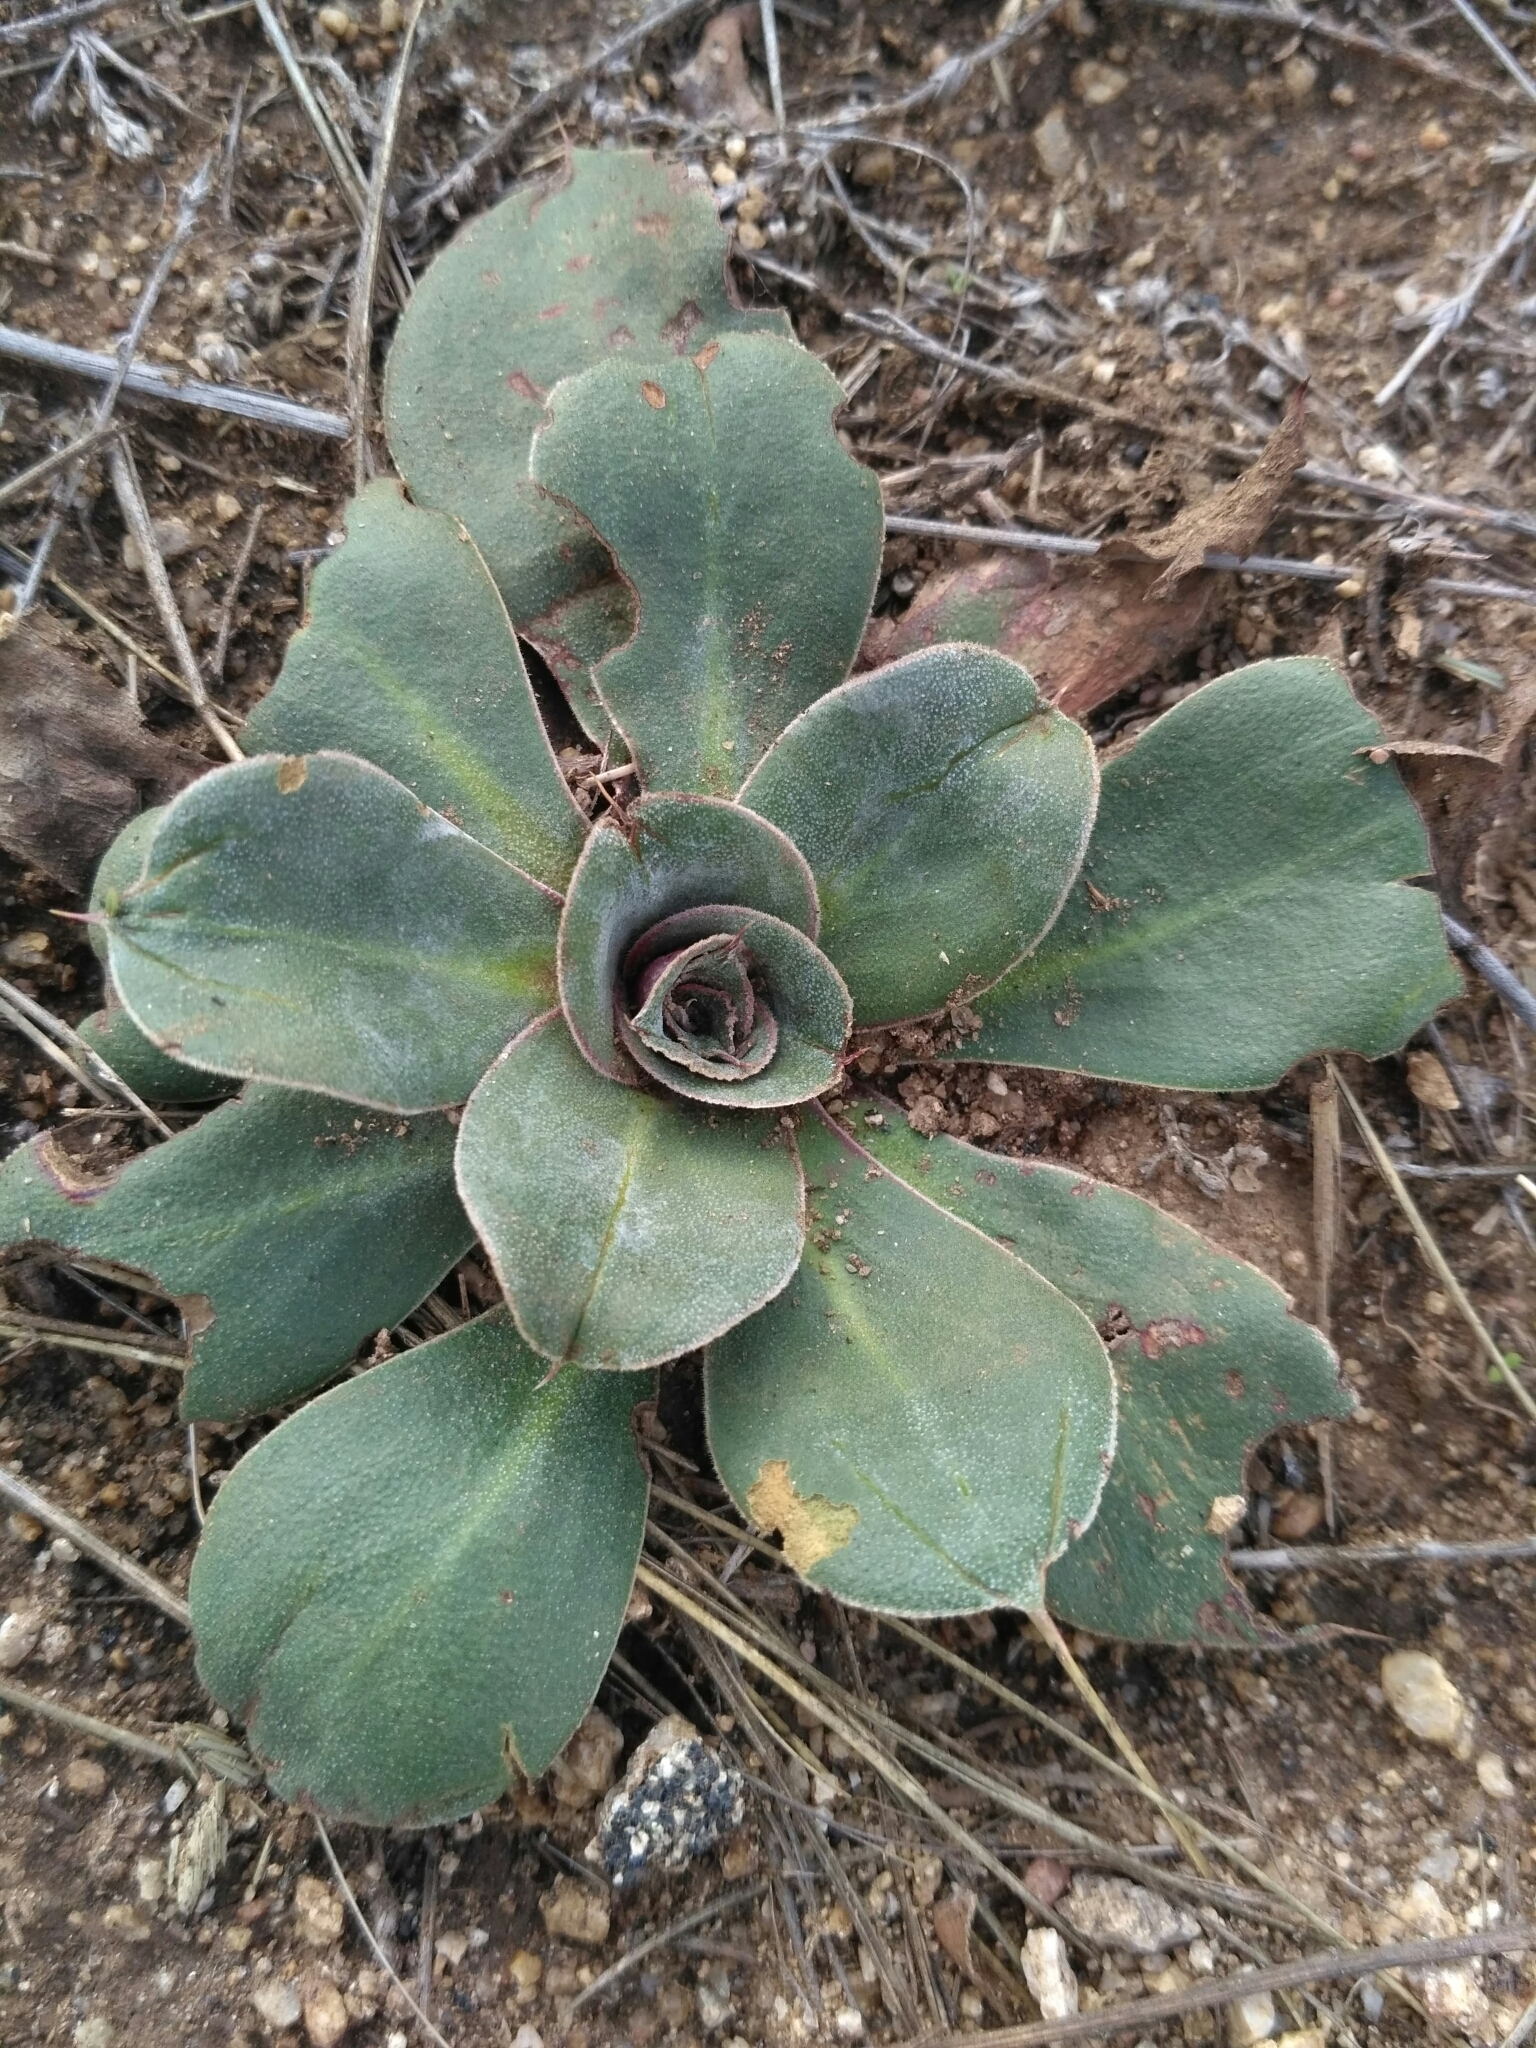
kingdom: Plantae
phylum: Tracheophyta
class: Magnoliopsida
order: Caryophyllales
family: Plumbaginaceae
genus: Goniolimon
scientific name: Goniolimon speciosum
